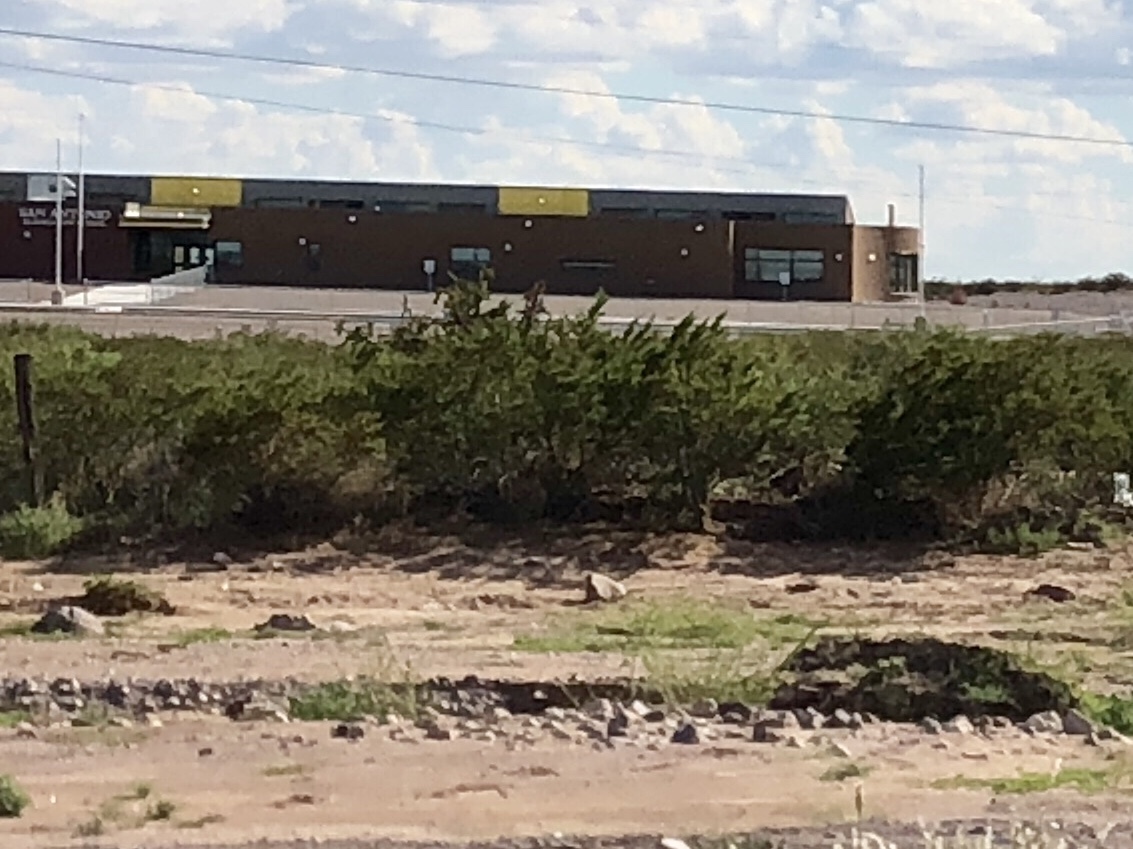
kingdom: Plantae
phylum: Tracheophyta
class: Magnoliopsida
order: Zygophyllales
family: Zygophyllaceae
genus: Larrea
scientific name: Larrea tridentata
